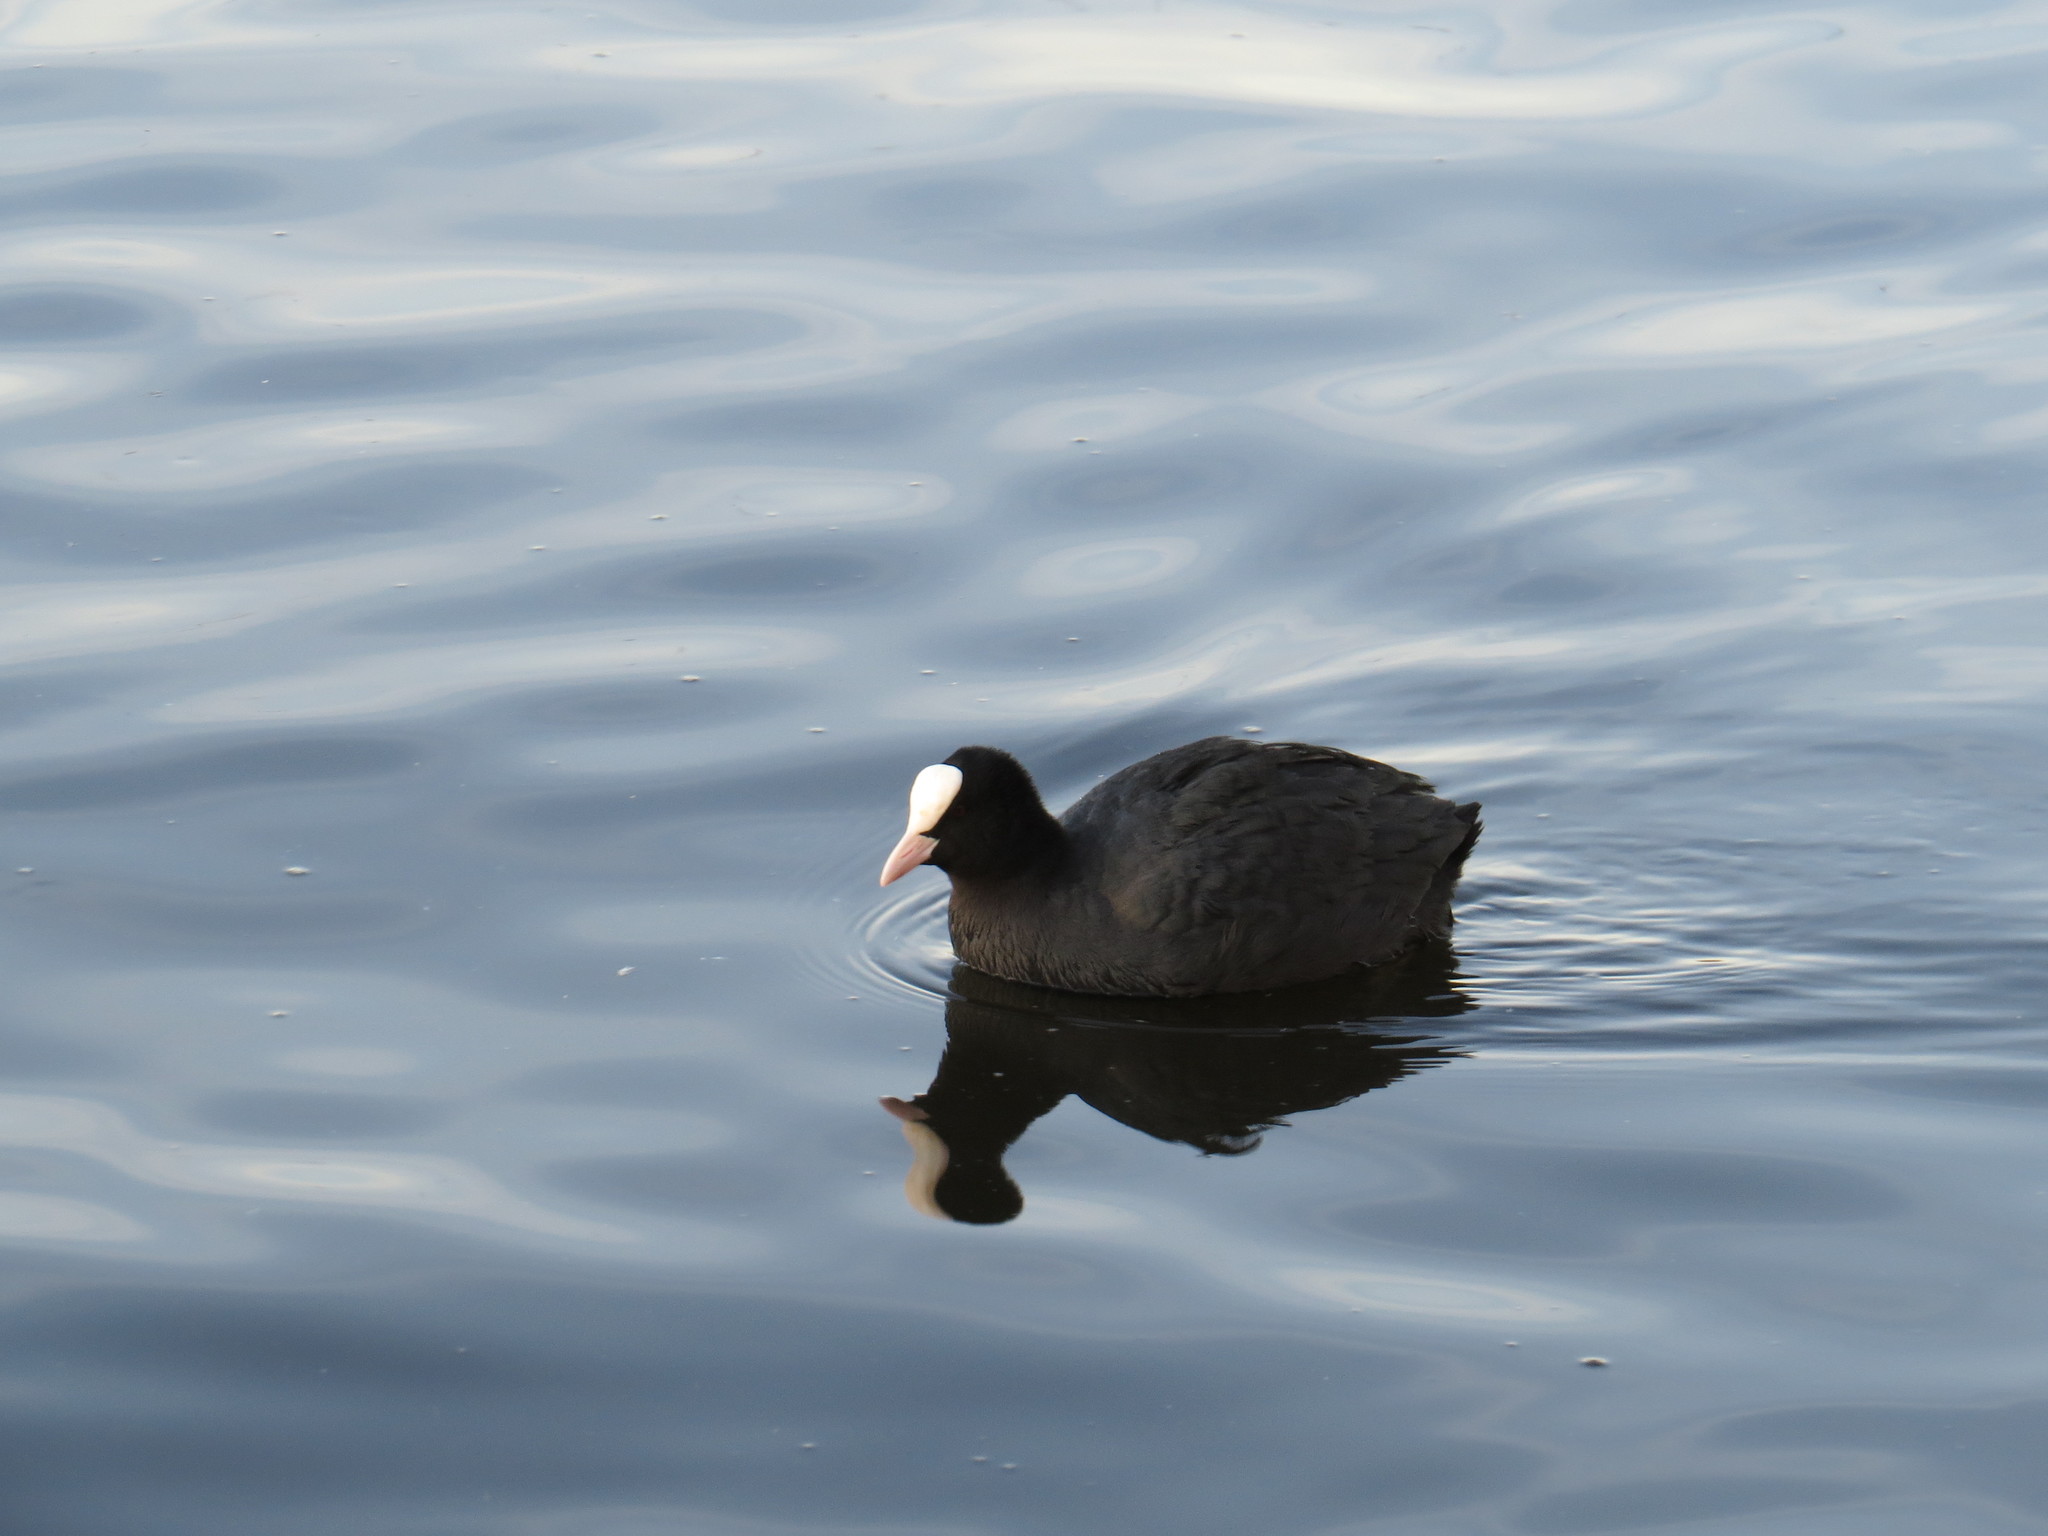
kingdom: Animalia
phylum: Chordata
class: Aves
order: Gruiformes
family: Rallidae
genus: Fulica
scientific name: Fulica atra
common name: Eurasian coot
